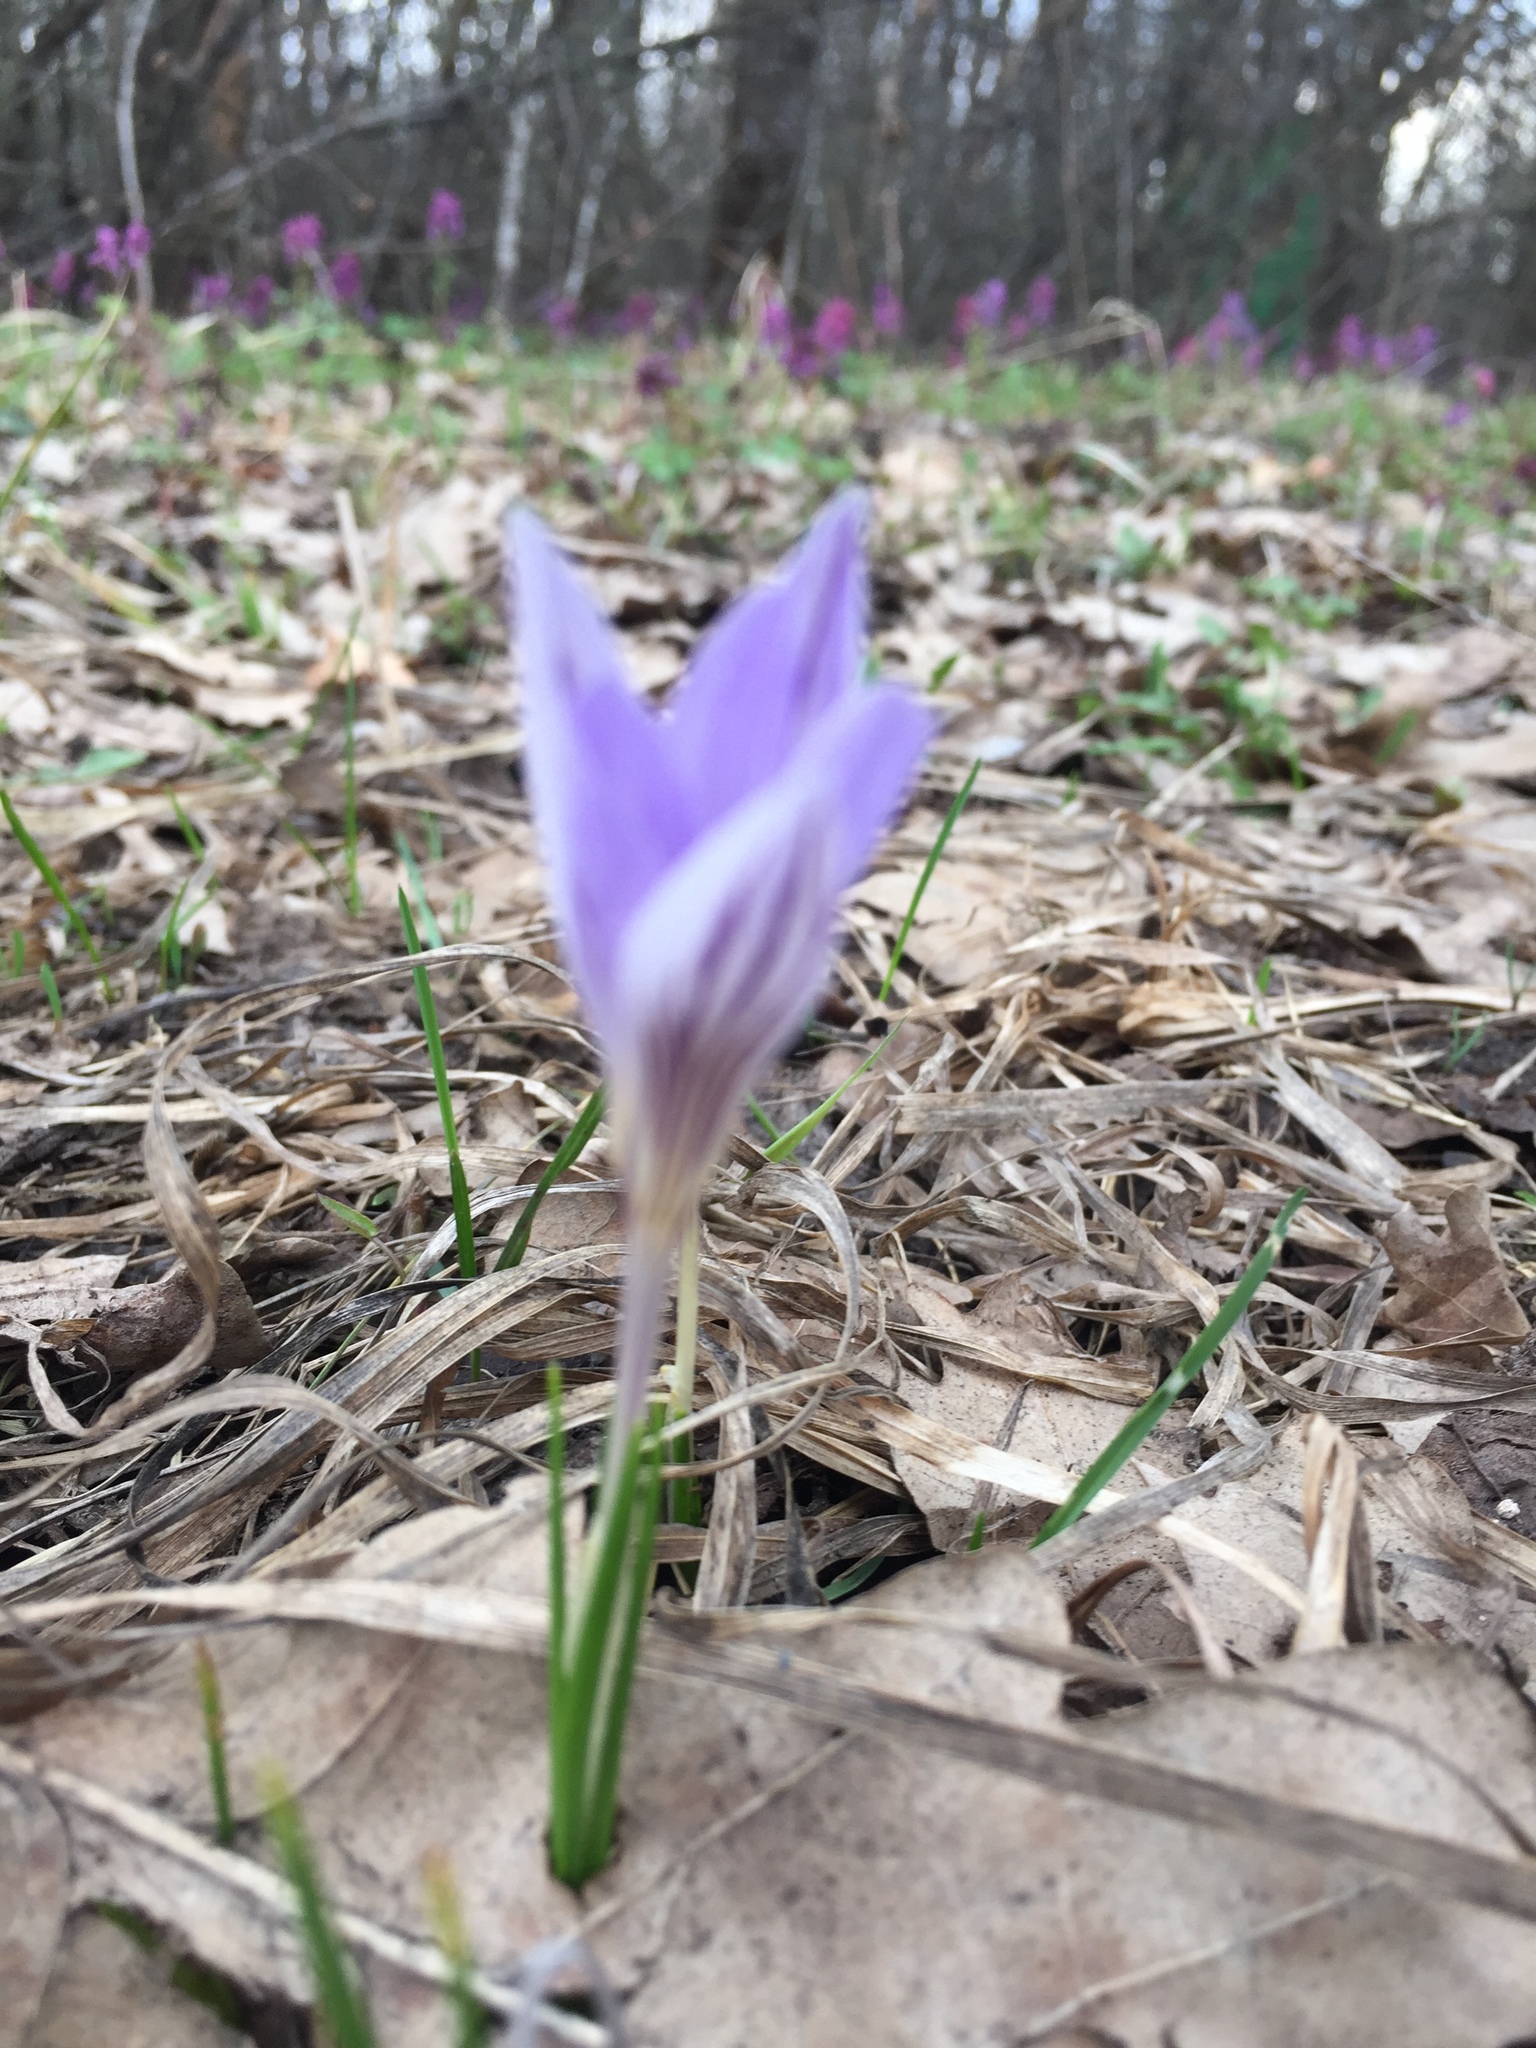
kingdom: Plantae
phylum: Tracheophyta
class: Liliopsida
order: Asparagales
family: Iridaceae
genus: Crocus
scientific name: Crocus reticulatus
